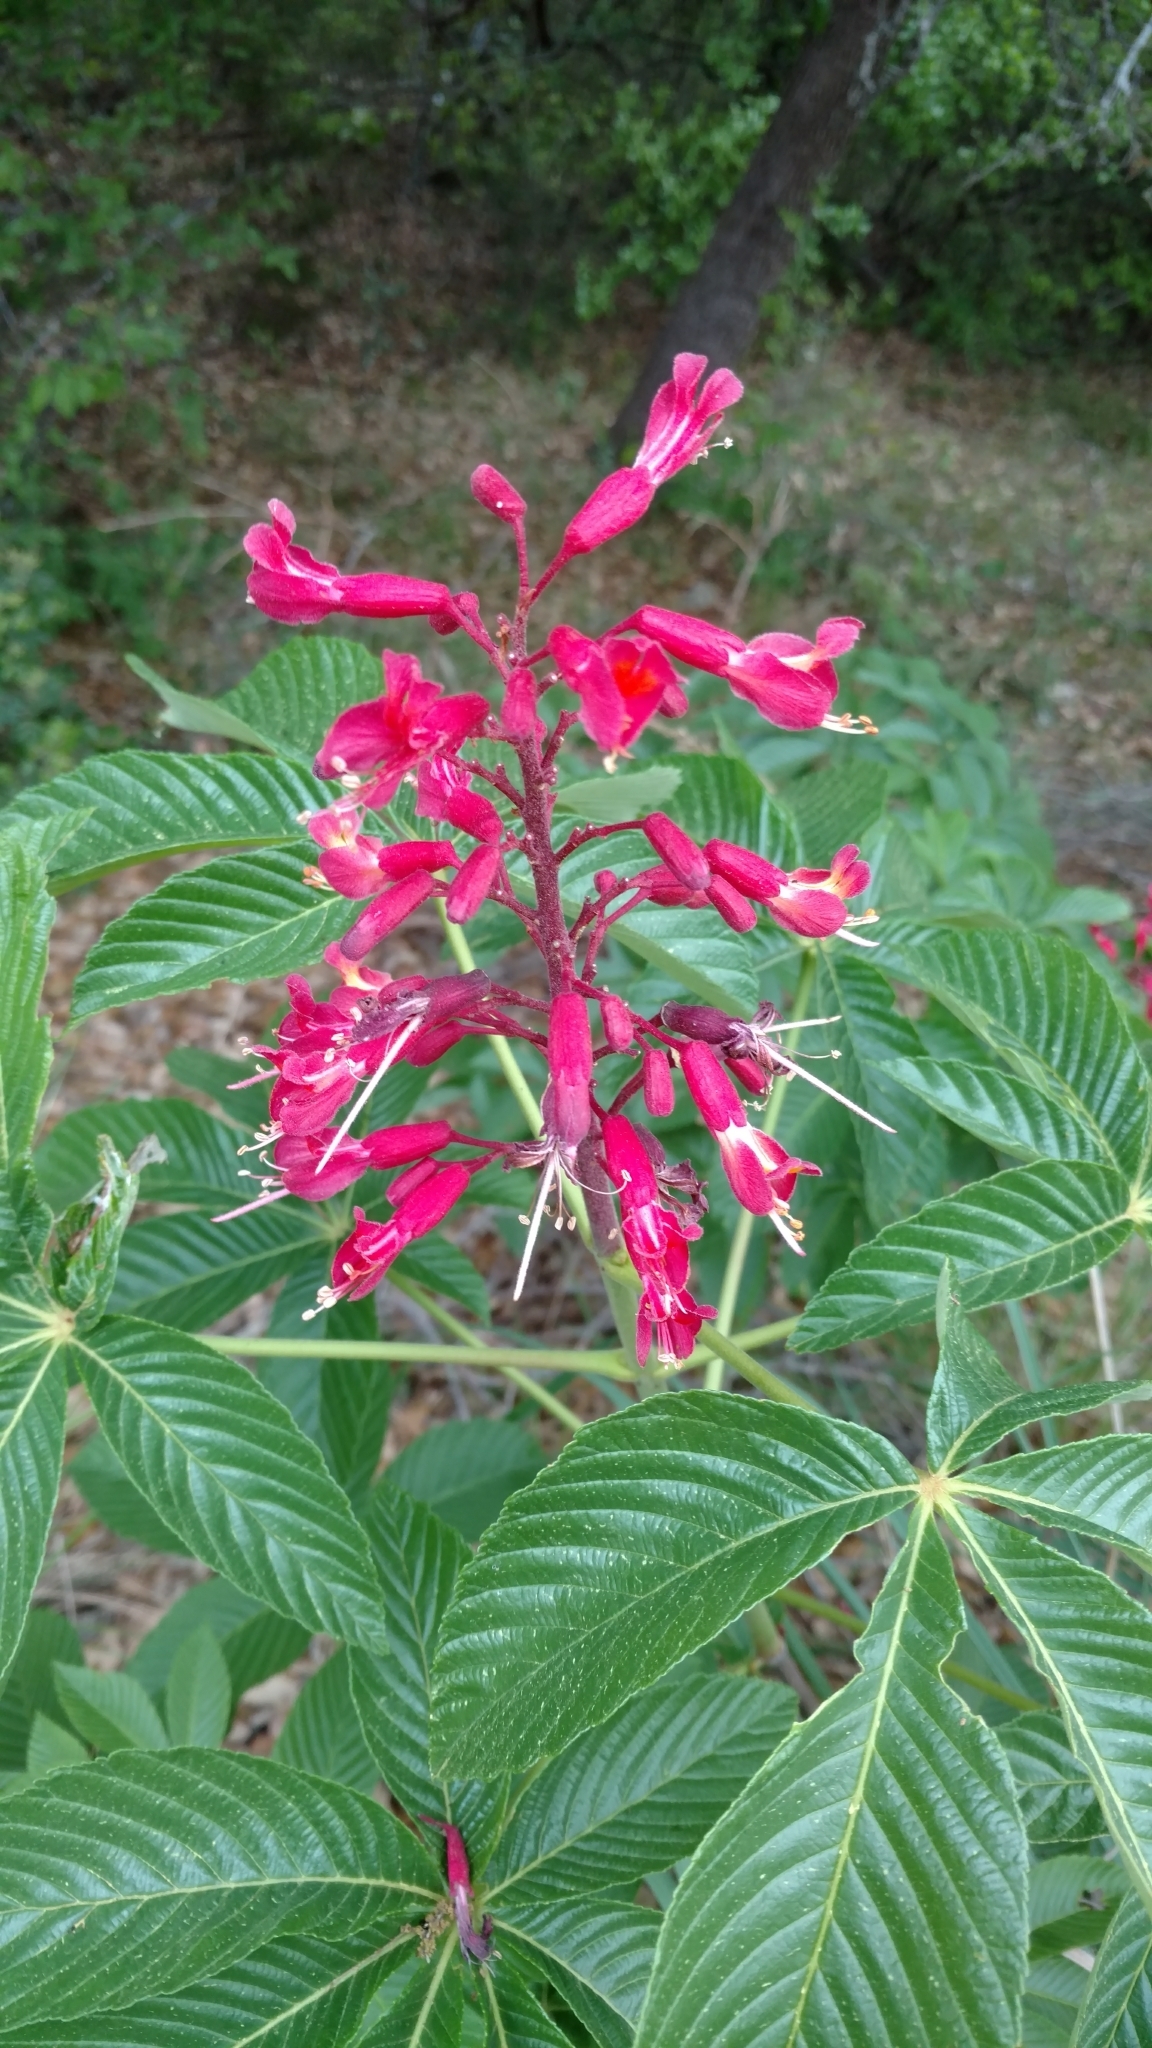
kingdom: Plantae
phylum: Tracheophyta
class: Magnoliopsida
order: Sapindales
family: Sapindaceae
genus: Aesculus
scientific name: Aesculus pavia
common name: Red buckeye
